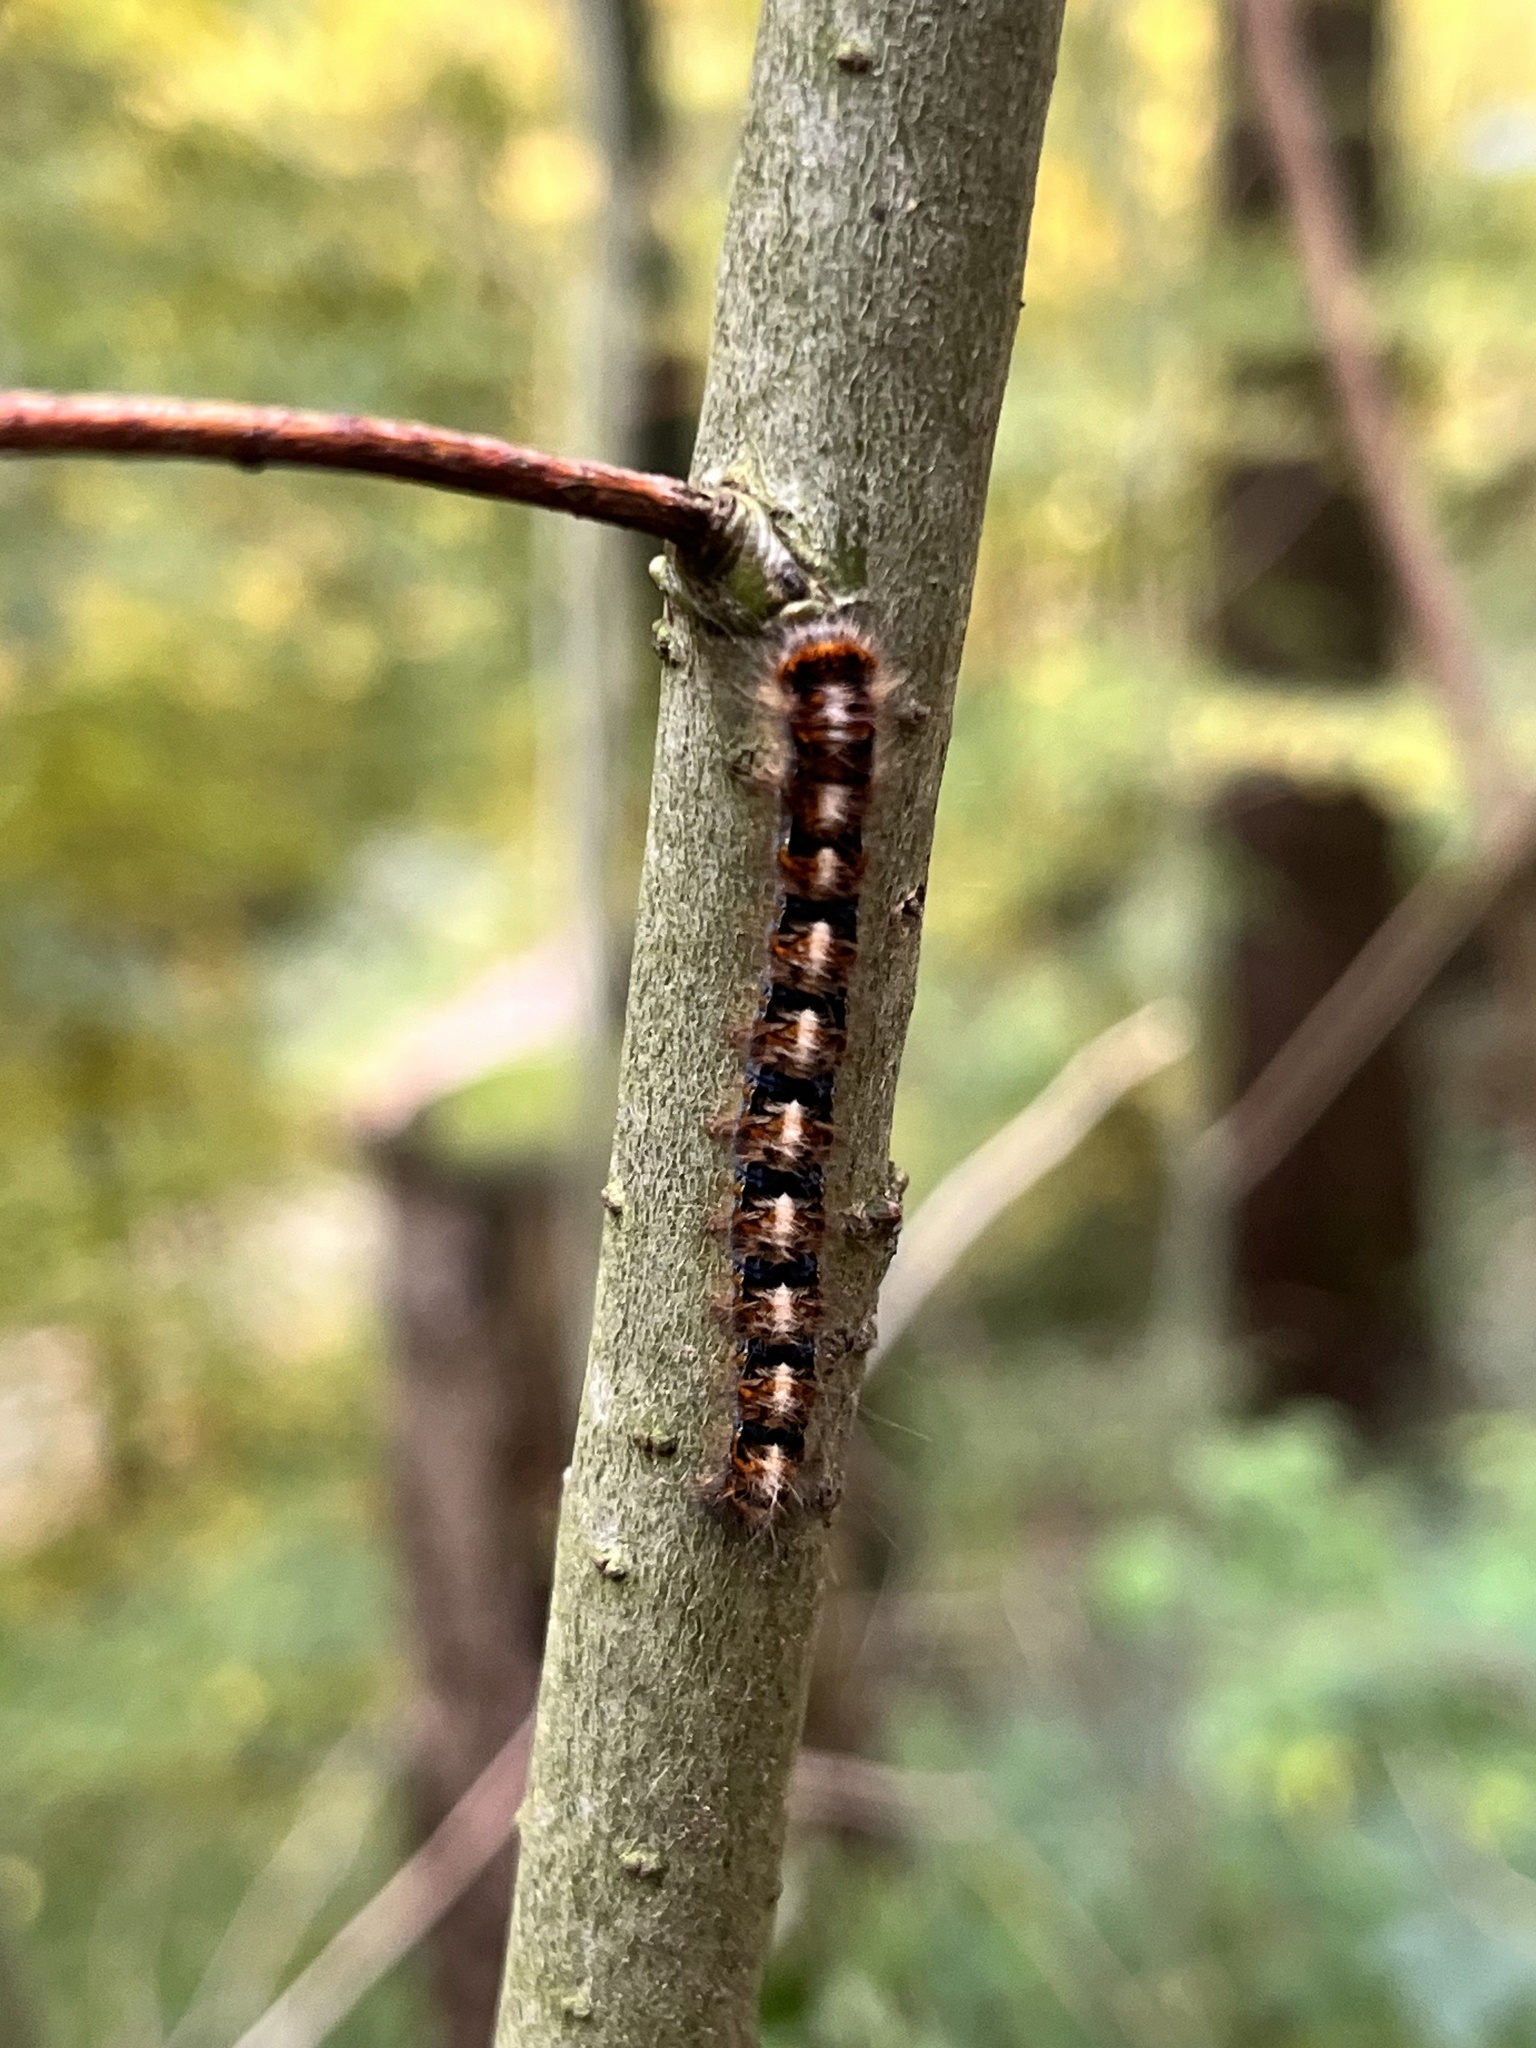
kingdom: Animalia
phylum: Arthropoda
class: Insecta
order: Lepidoptera
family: Lasiocampidae
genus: Lasiocampa
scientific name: Lasiocampa quercus
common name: Oak eggar
